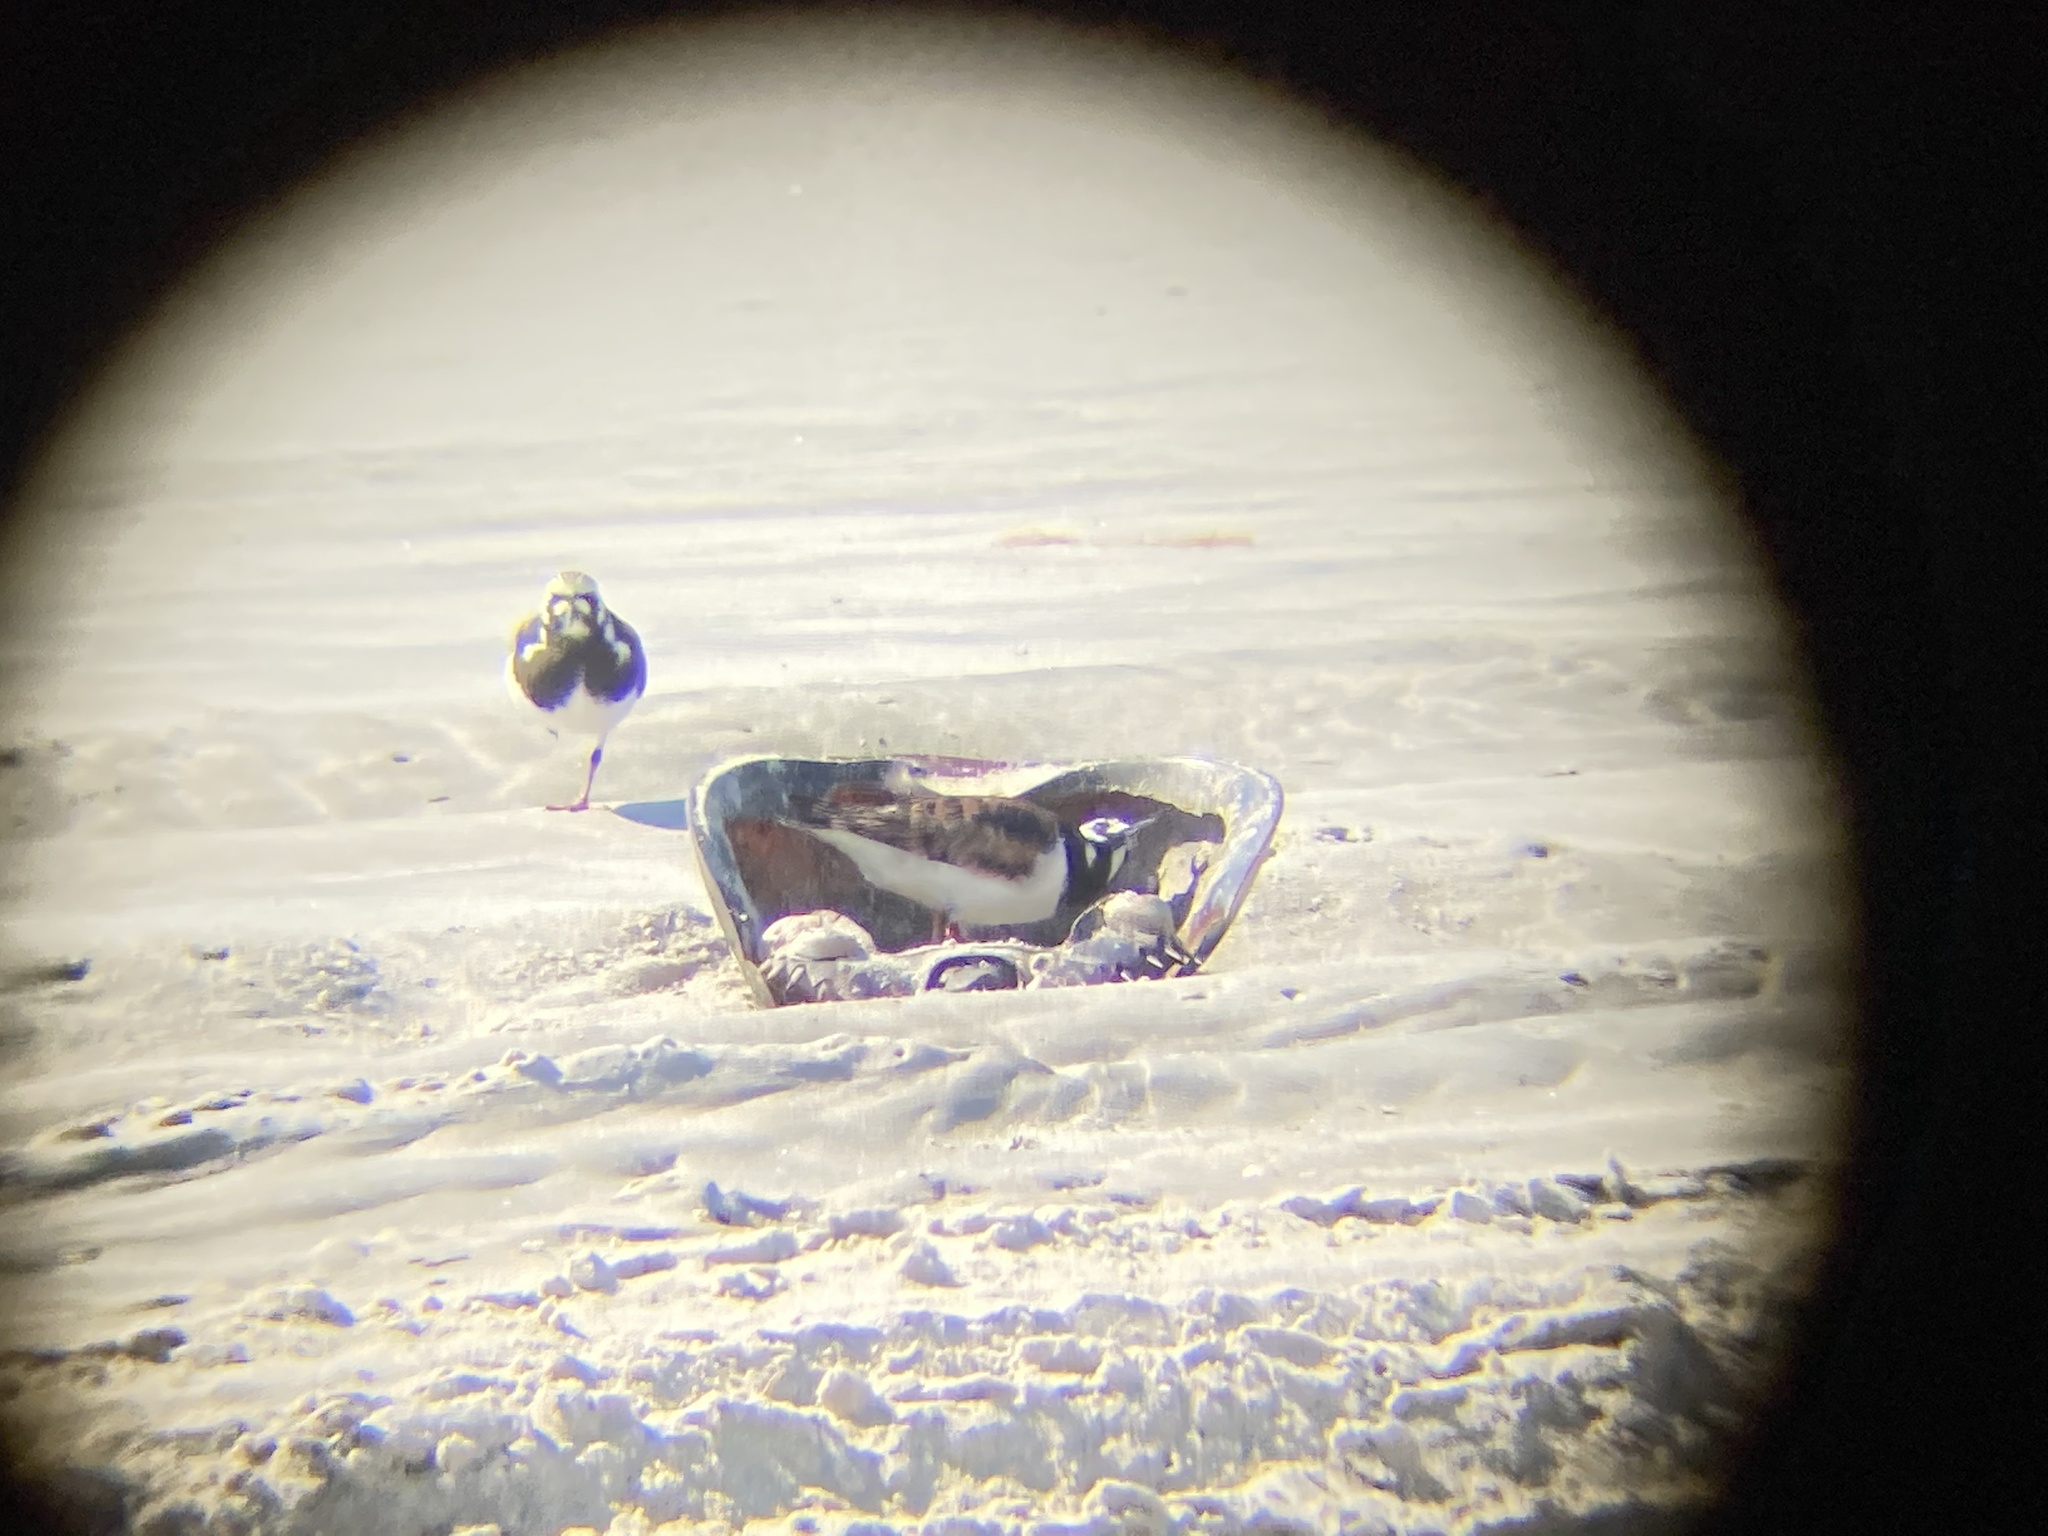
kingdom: Animalia
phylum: Chordata
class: Aves
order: Charadriiformes
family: Scolopacidae
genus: Arenaria
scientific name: Arenaria interpres
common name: Ruddy turnstone
